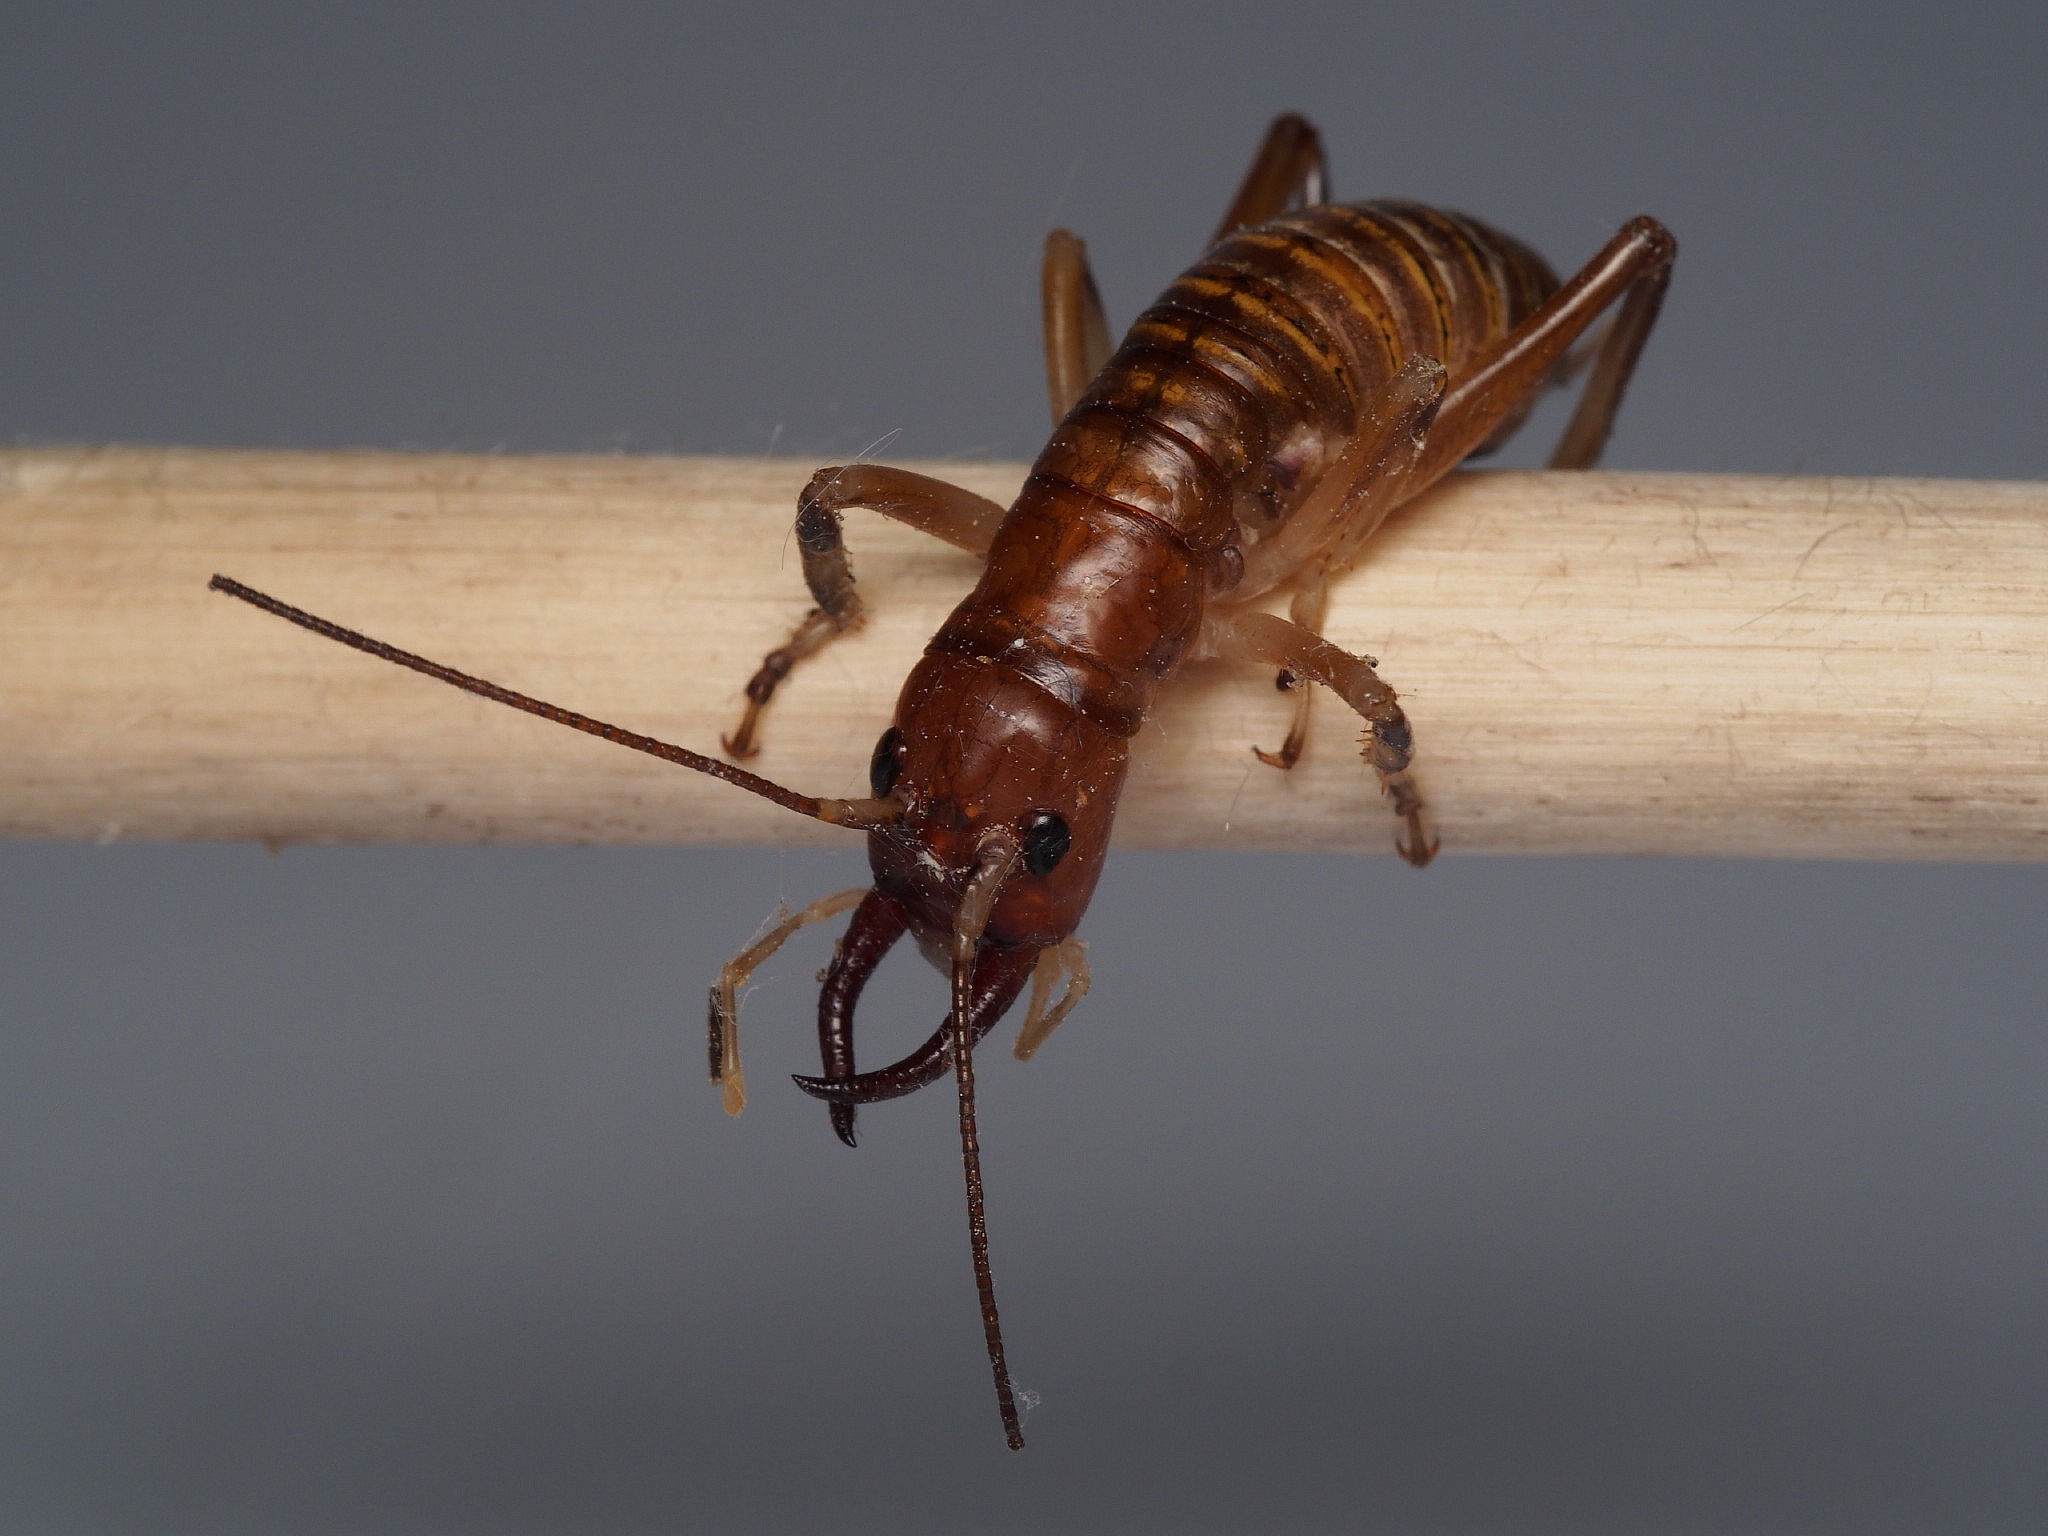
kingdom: Animalia
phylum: Arthropoda
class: Insecta
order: Orthoptera
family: Anostostomatidae
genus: Anisoura
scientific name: Anisoura nicobarica
